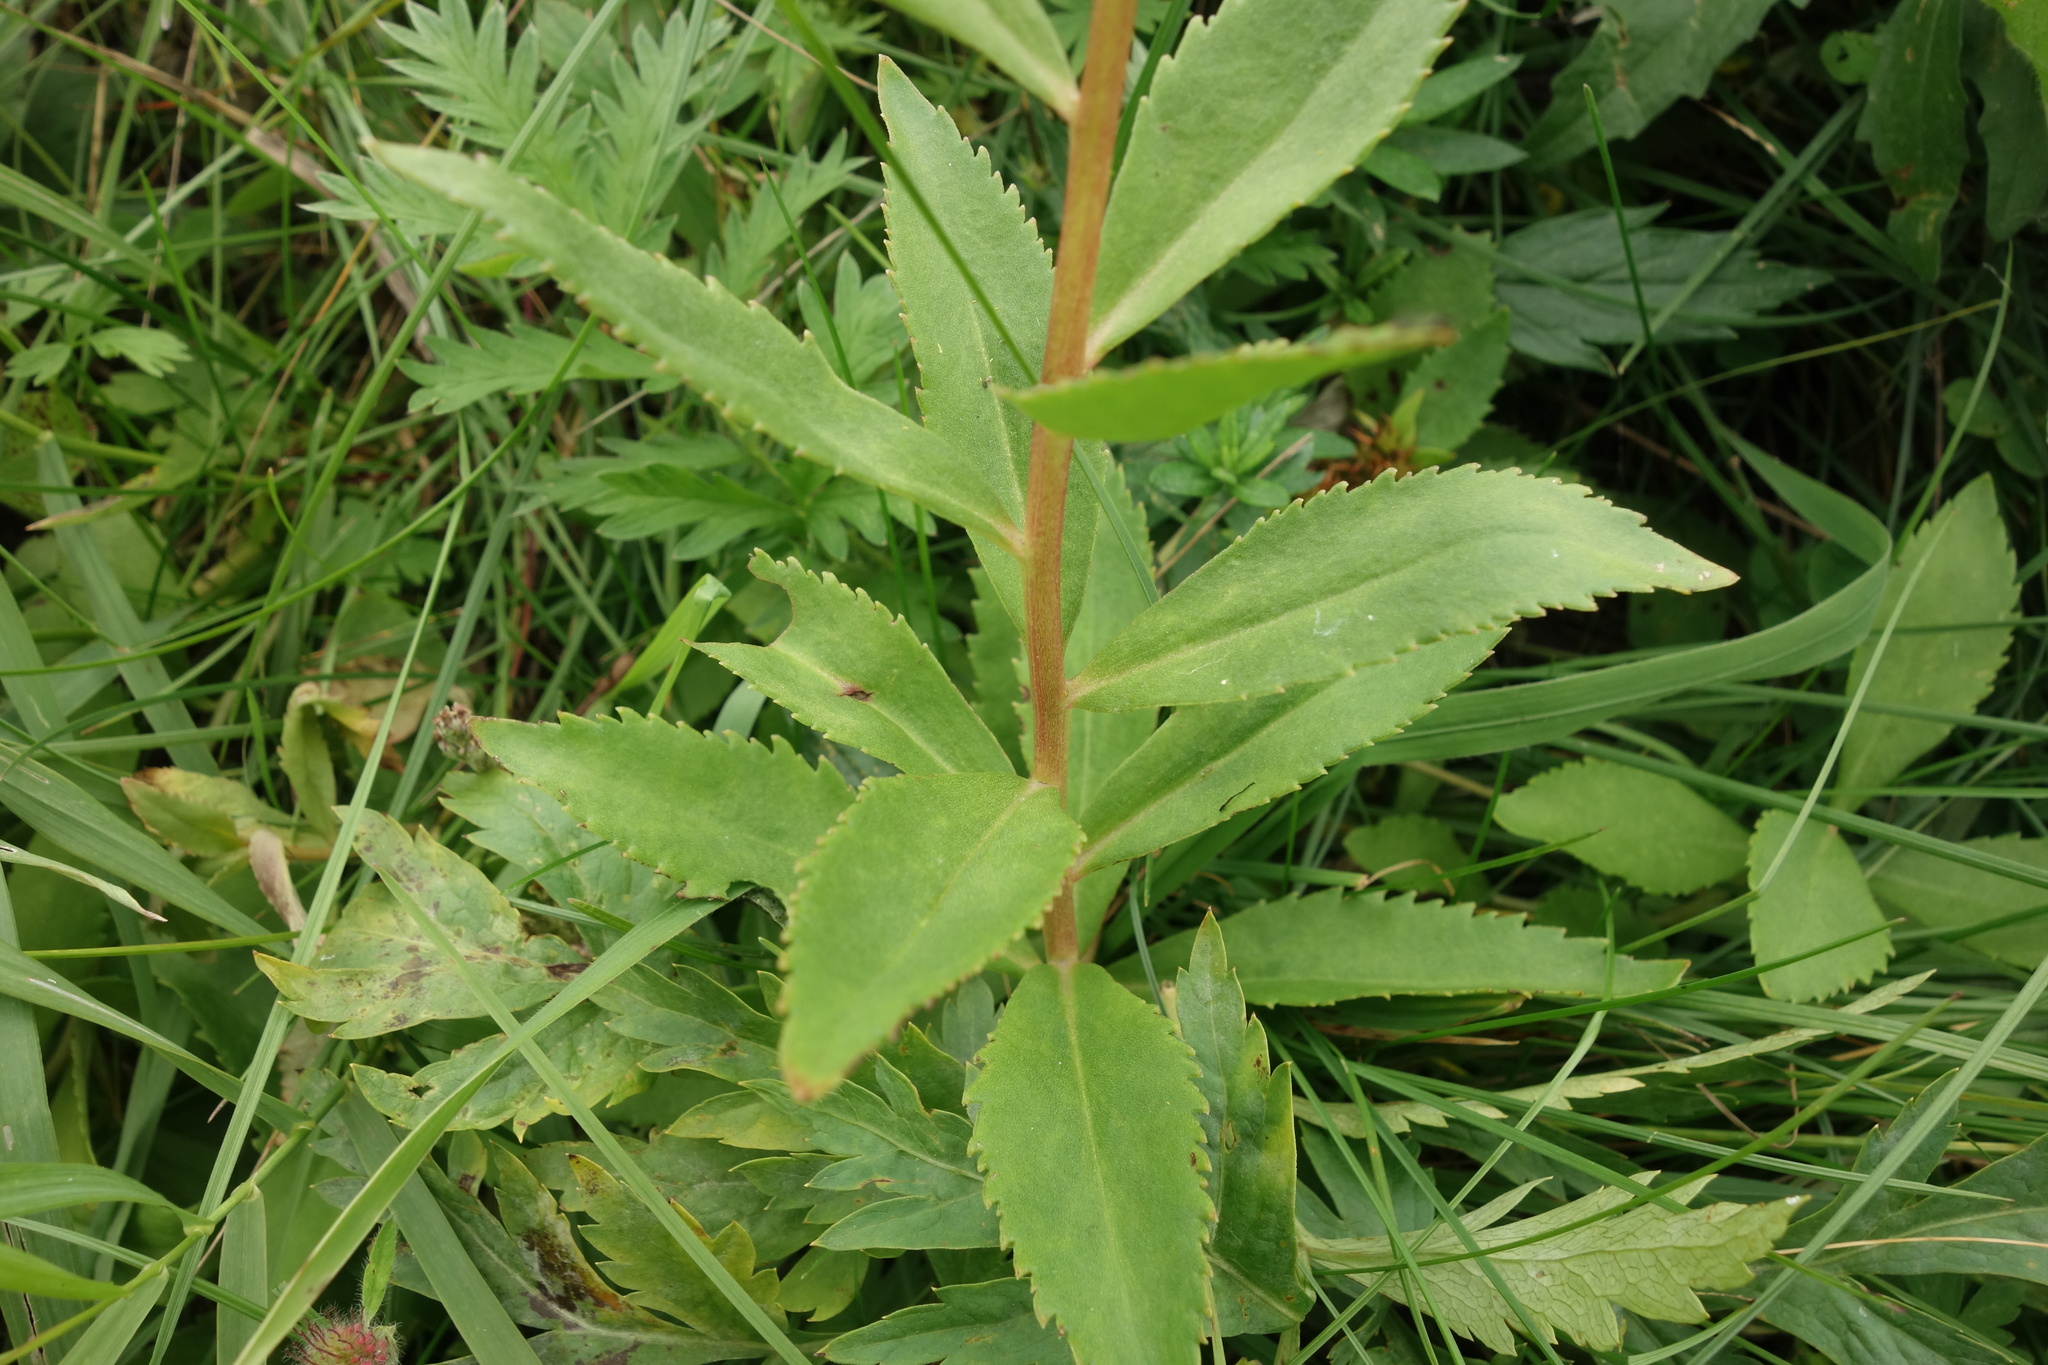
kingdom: Plantae
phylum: Tracheophyta
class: Magnoliopsida
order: Saxifragales
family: Crassulaceae
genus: Phedimus
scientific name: Phedimus aizoon
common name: Orpin aizoon
